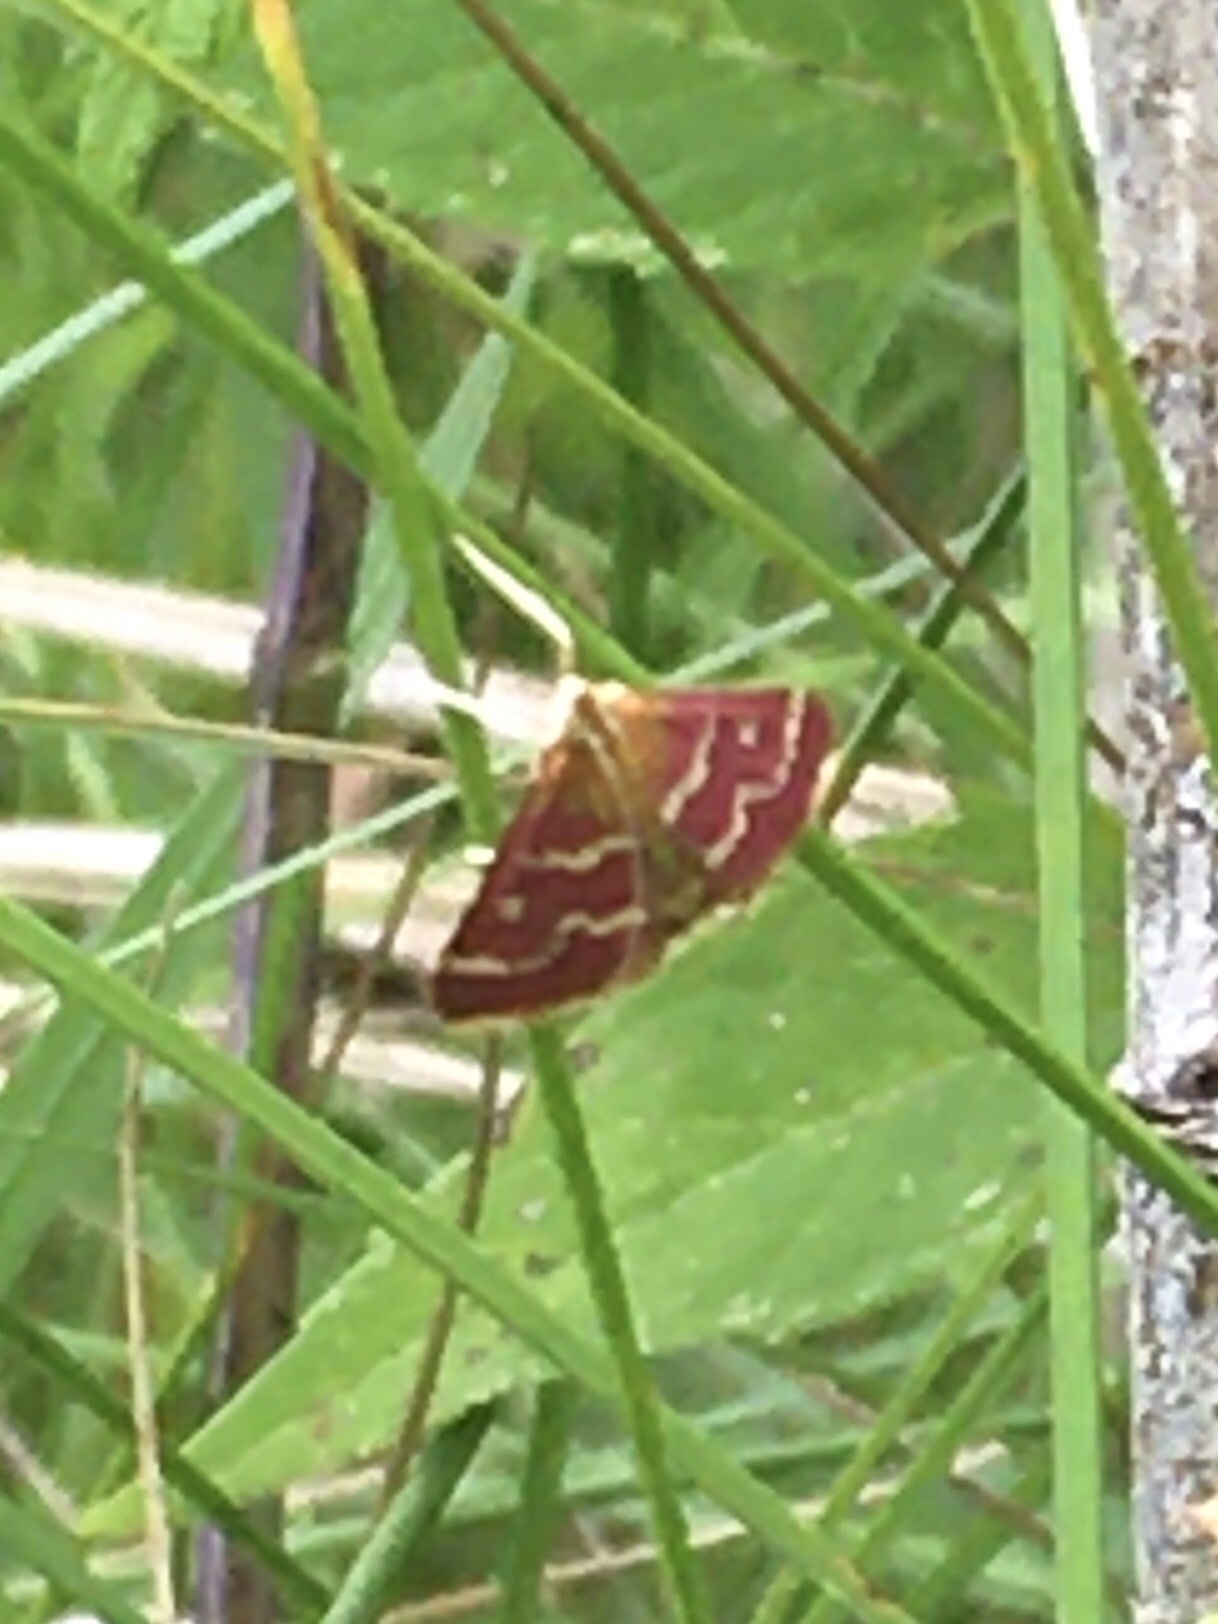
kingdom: Animalia
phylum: Arthropoda
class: Insecta
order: Lepidoptera
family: Crambidae
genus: Pyrausta
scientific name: Pyrausta signatalis
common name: Raspberry pyrausta moth
